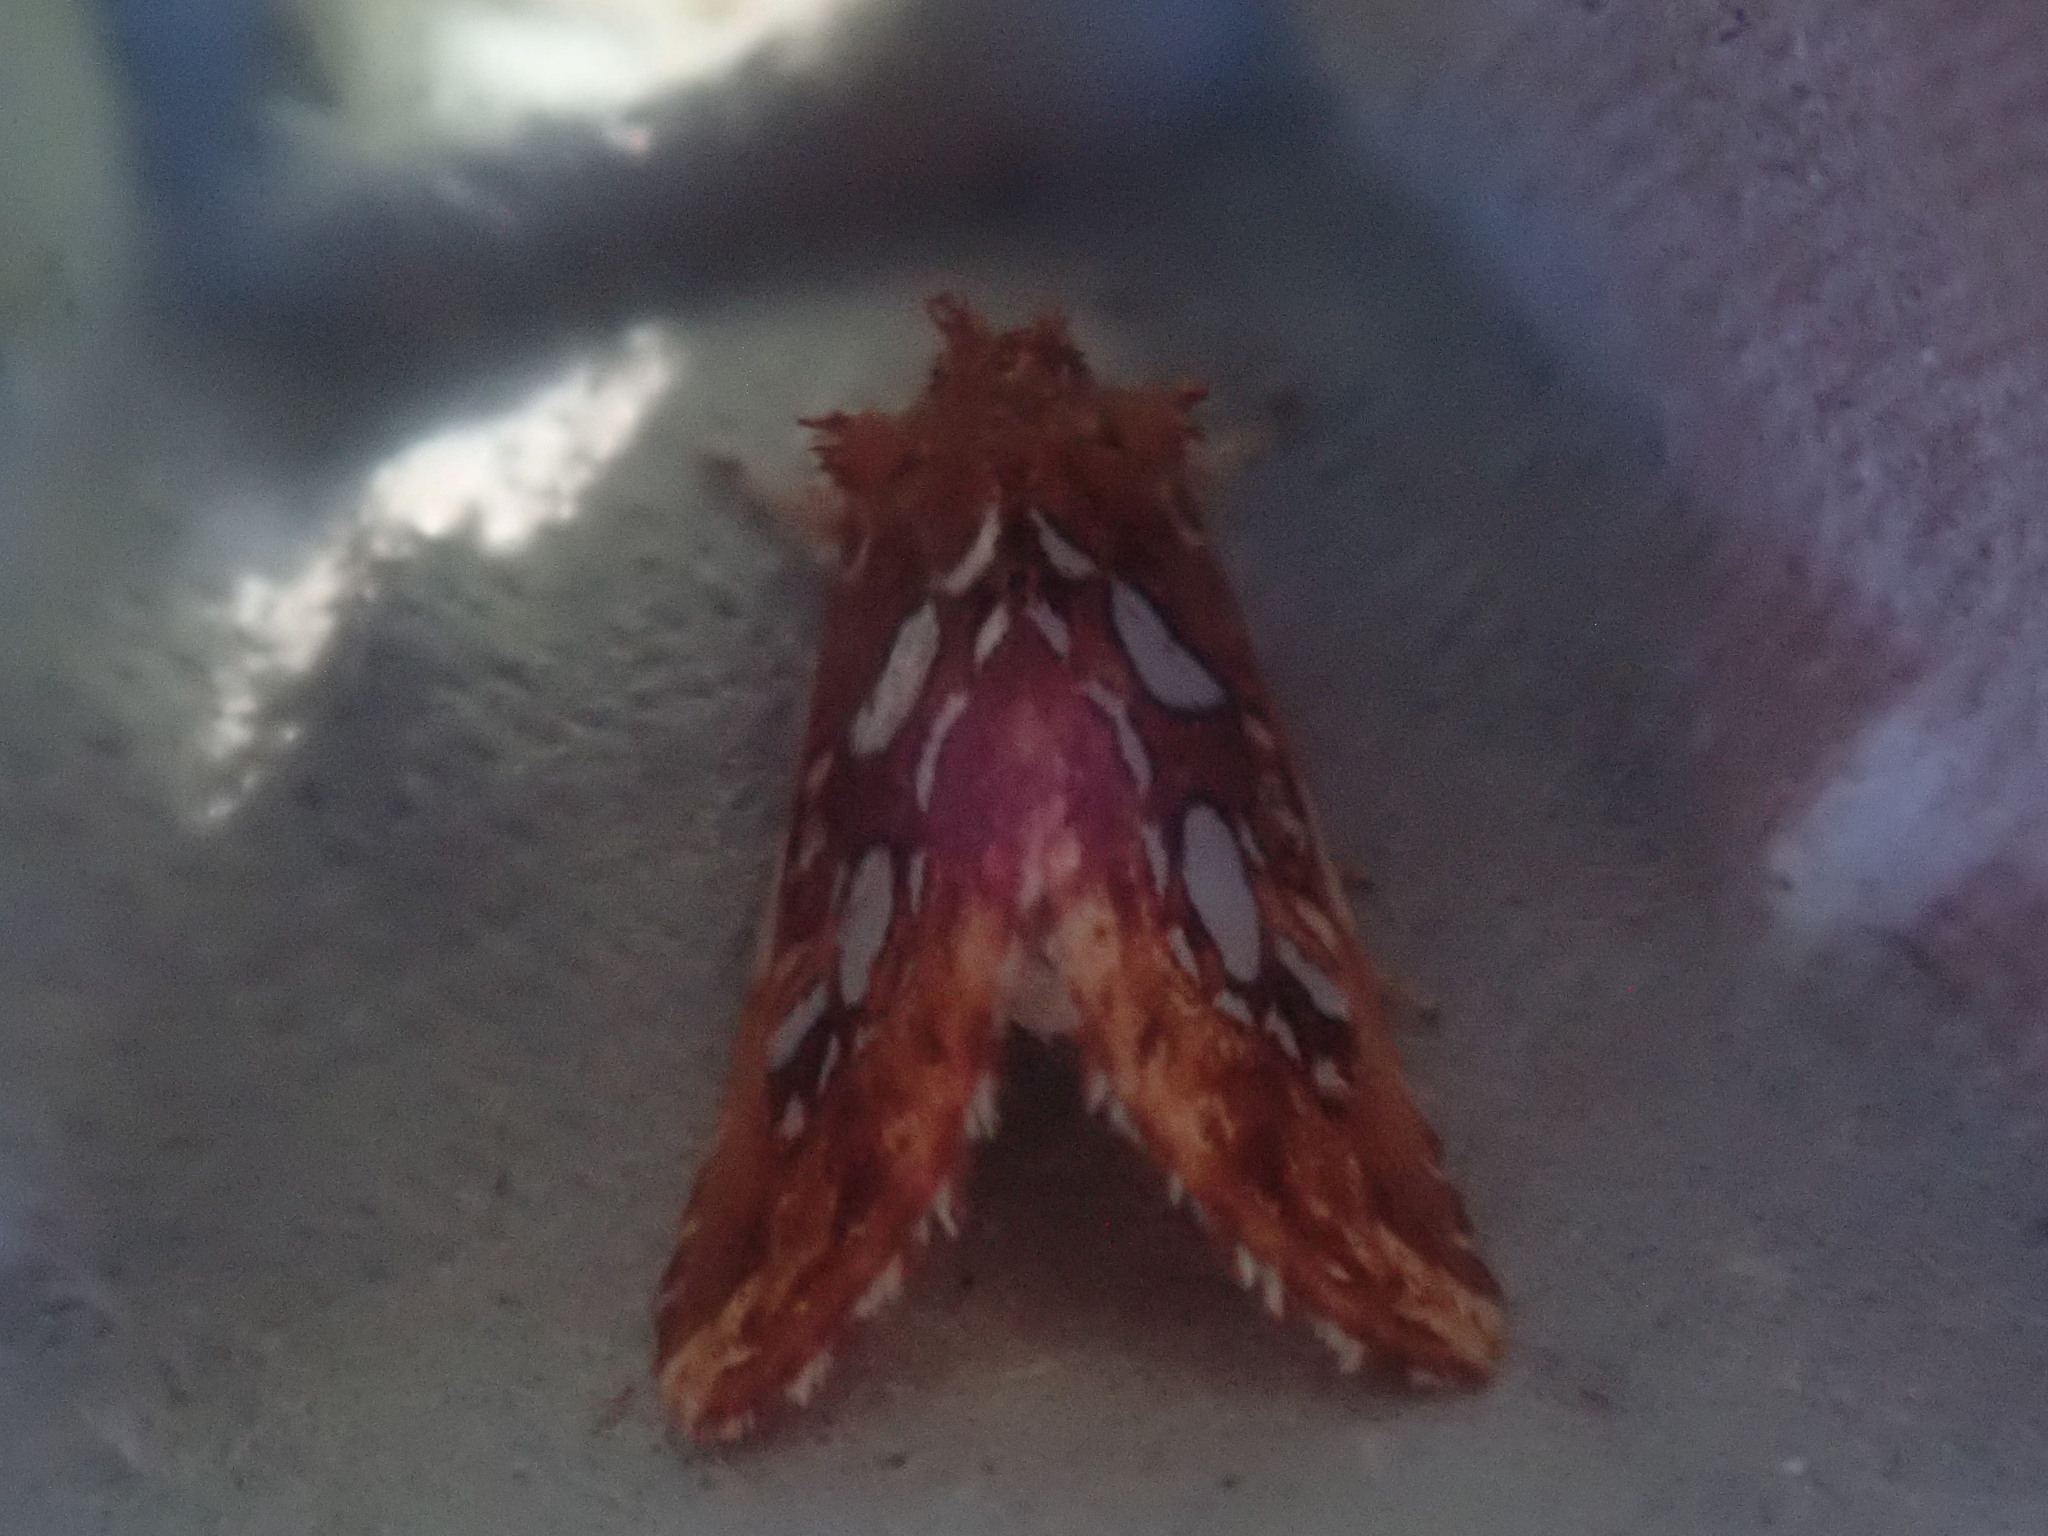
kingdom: Animalia
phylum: Arthropoda
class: Insecta
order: Lepidoptera
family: Noctuidae
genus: Callopistria
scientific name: Callopistria cordata
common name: Silver-spotted fern moth
